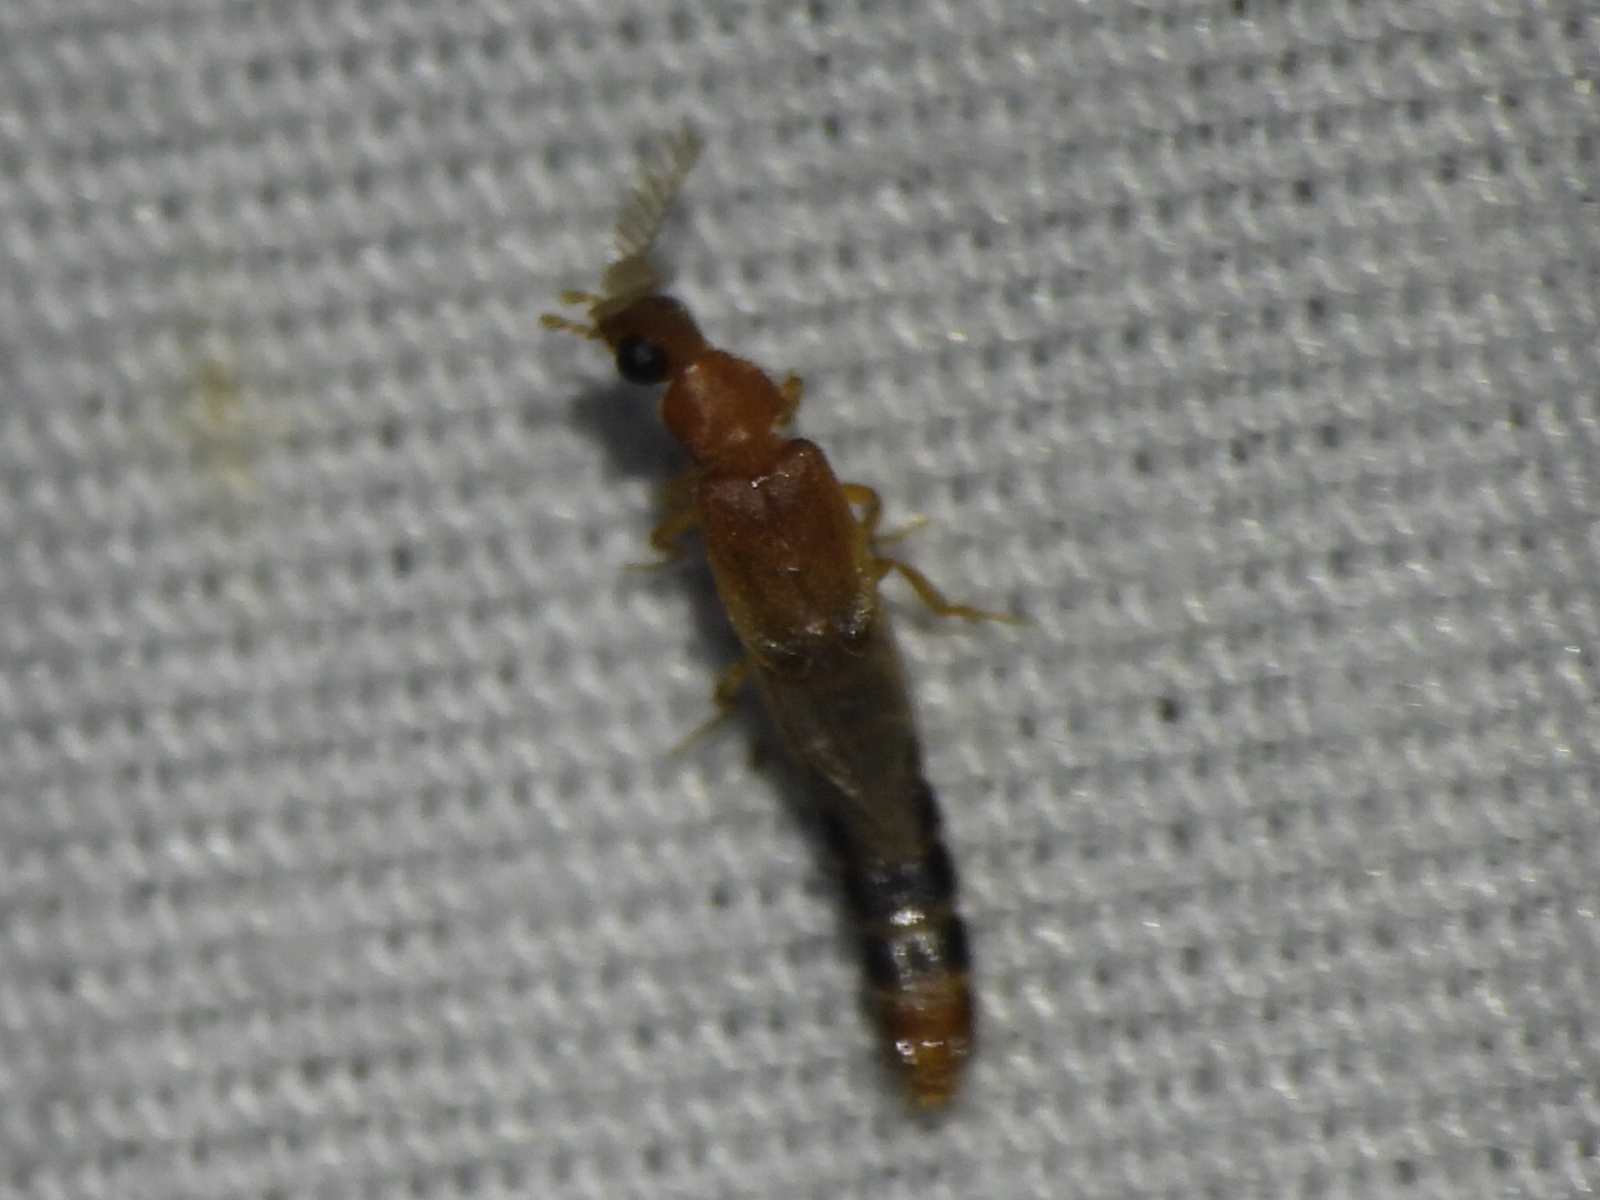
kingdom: Animalia
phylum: Arthropoda
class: Insecta
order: Coleoptera
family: Phengodidae
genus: Distremocephalus
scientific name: Distremocephalus texanus
